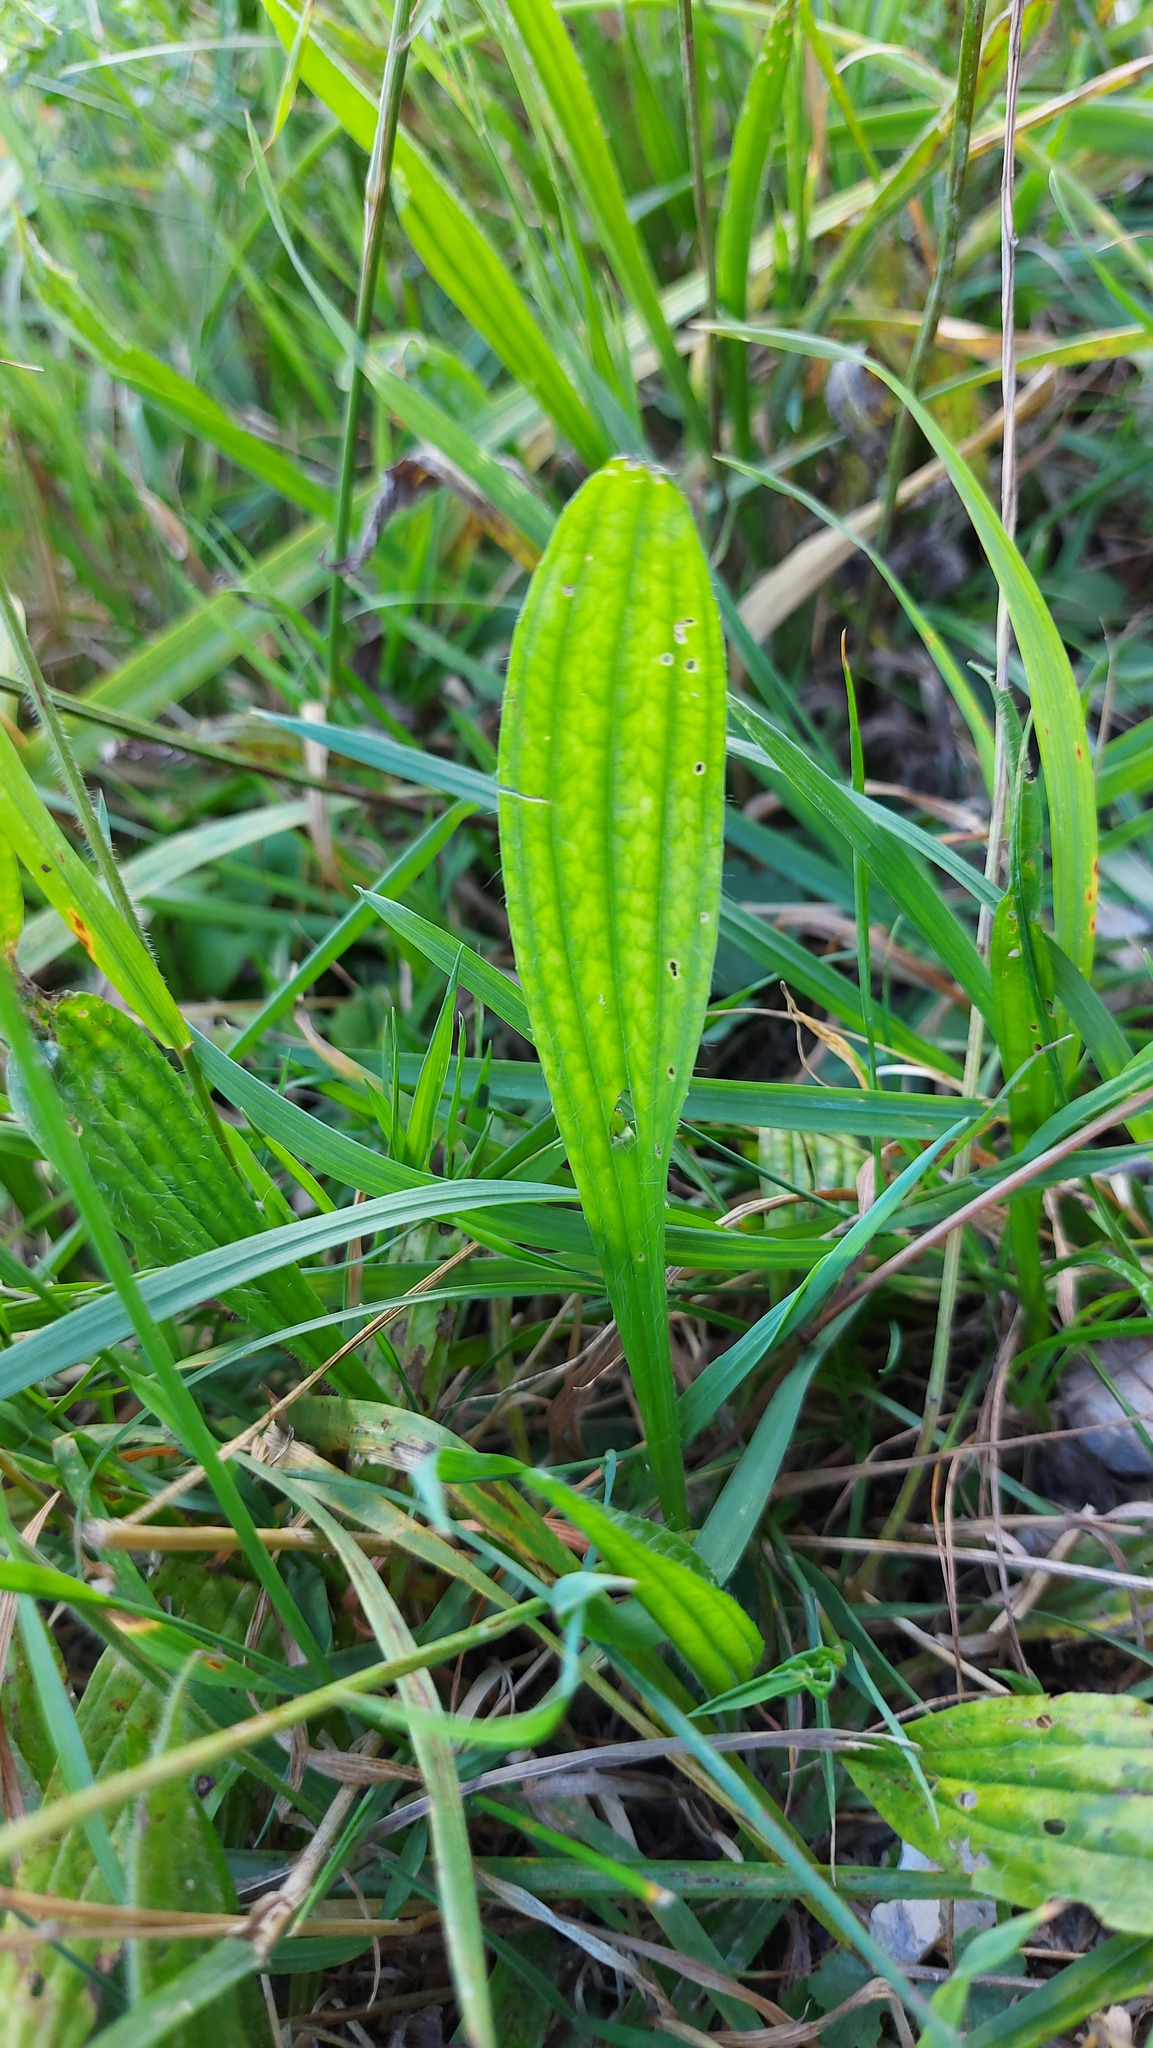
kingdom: Plantae
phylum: Tracheophyta
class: Magnoliopsida
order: Lamiales
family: Plantaginaceae
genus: Plantago
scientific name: Plantago lanceolata
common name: Ribwort plantain
